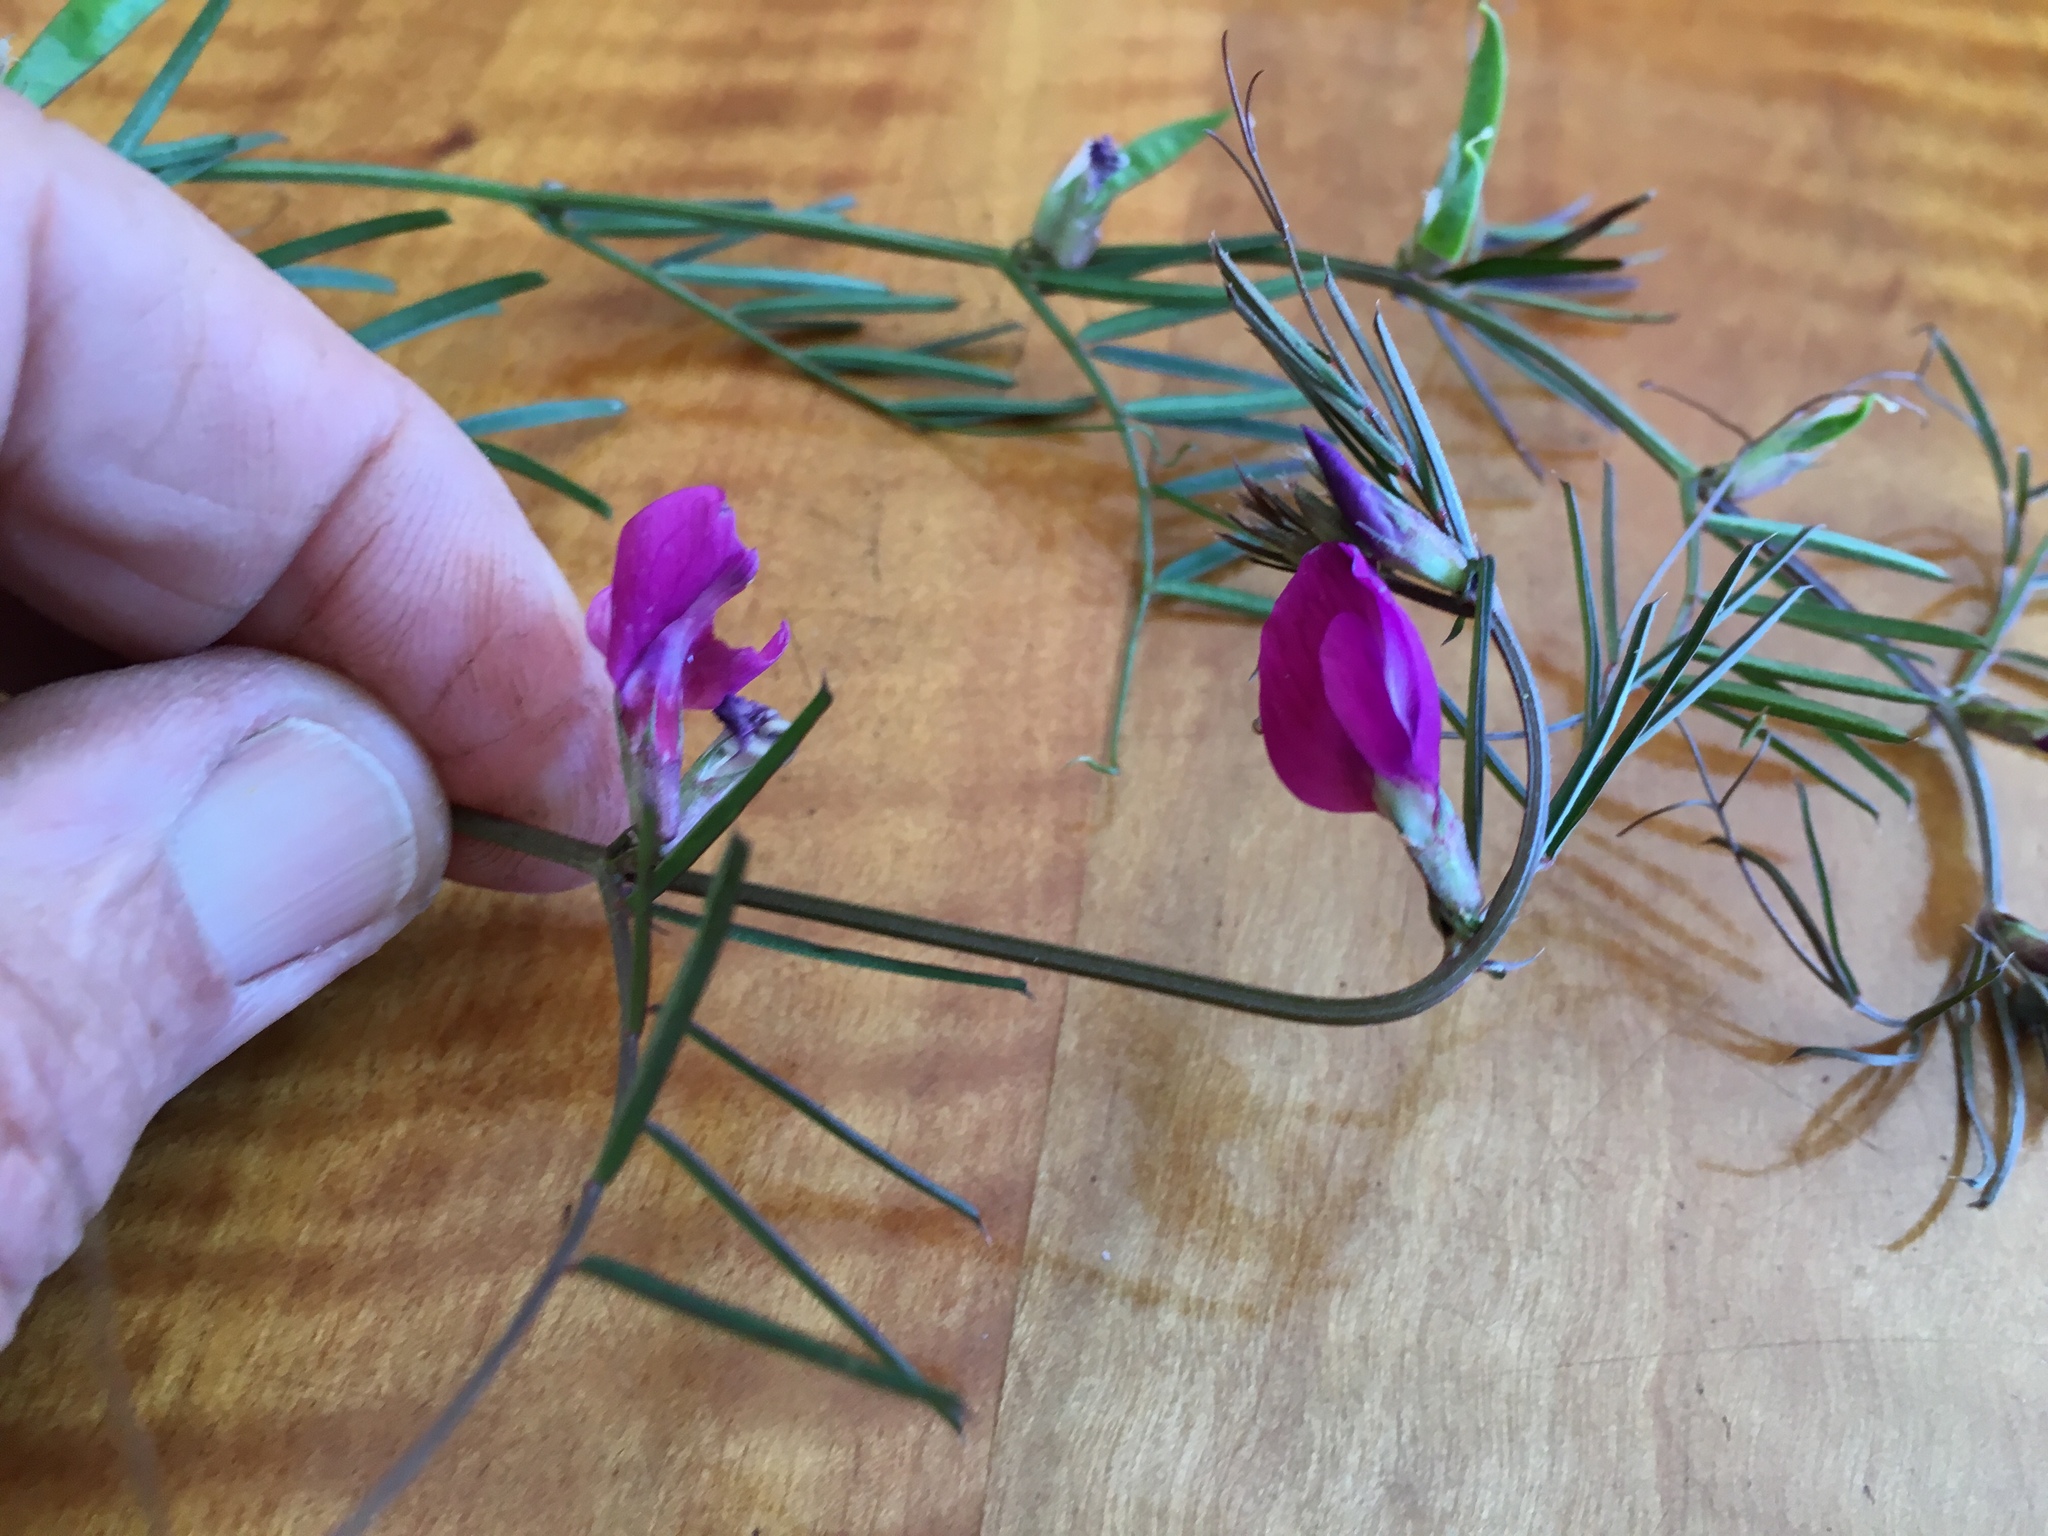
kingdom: Plantae
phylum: Tracheophyta
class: Magnoliopsida
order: Fabales
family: Fabaceae
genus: Vicia
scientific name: Vicia sativa
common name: Garden vetch
